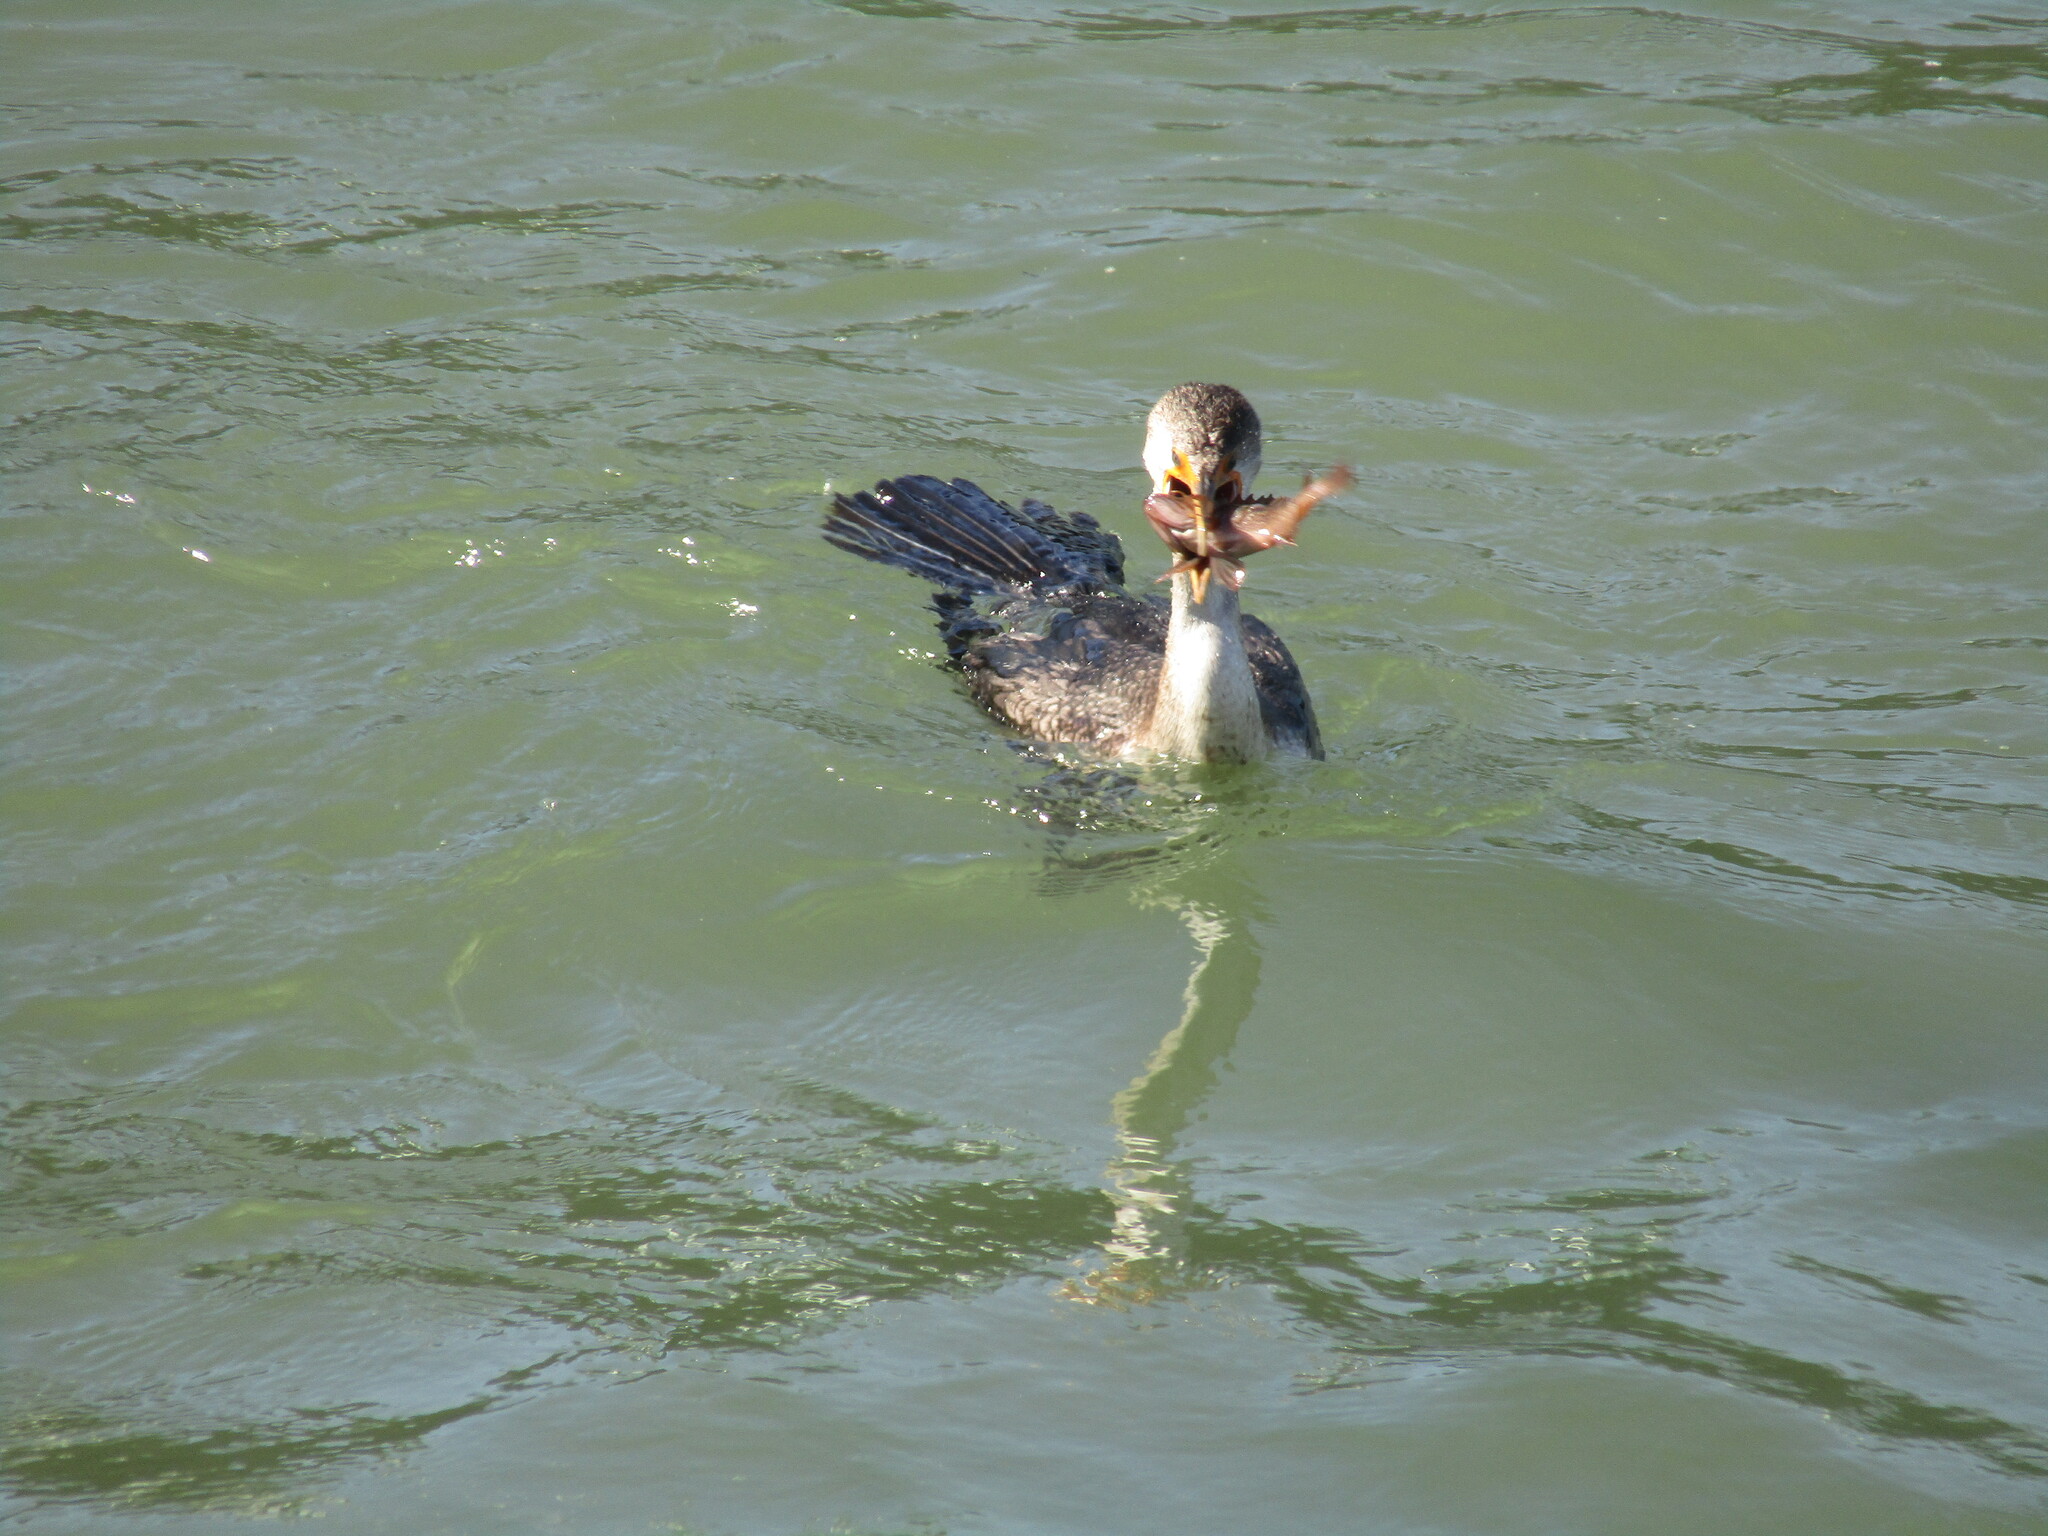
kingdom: Animalia
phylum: Chordata
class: Aves
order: Suliformes
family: Phalacrocoracidae
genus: Phalacrocorax
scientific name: Phalacrocorax auritus
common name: Double-crested cormorant
